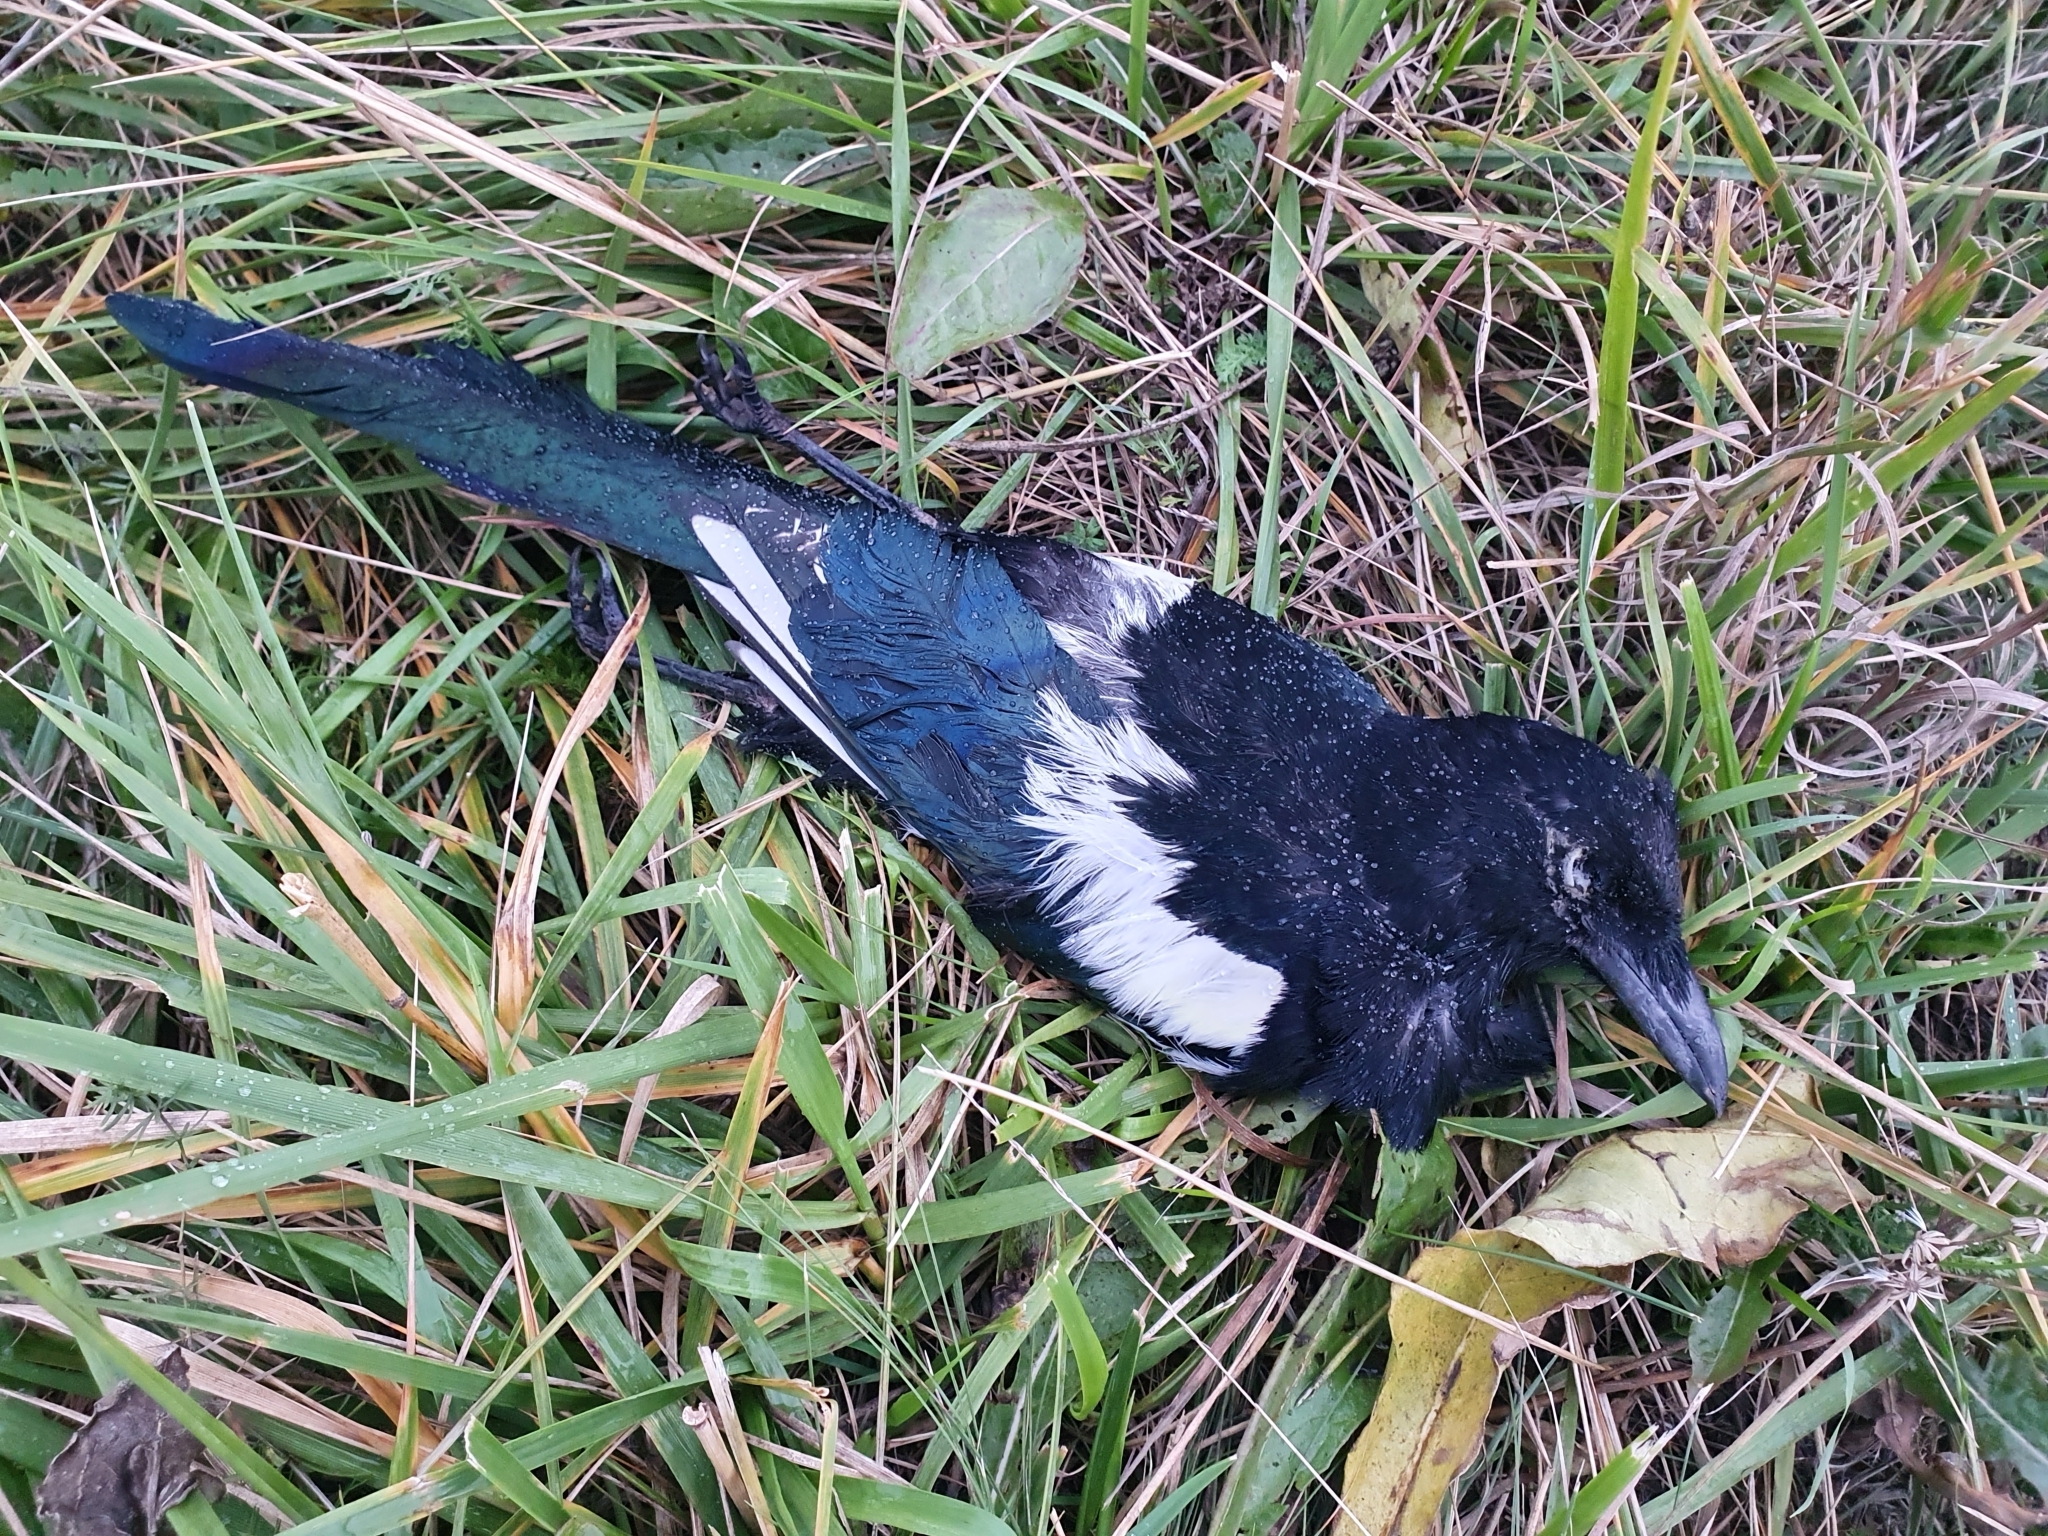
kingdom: Animalia
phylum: Chordata
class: Aves
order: Passeriformes
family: Corvidae
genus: Pica
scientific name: Pica pica
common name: Eurasian magpie
